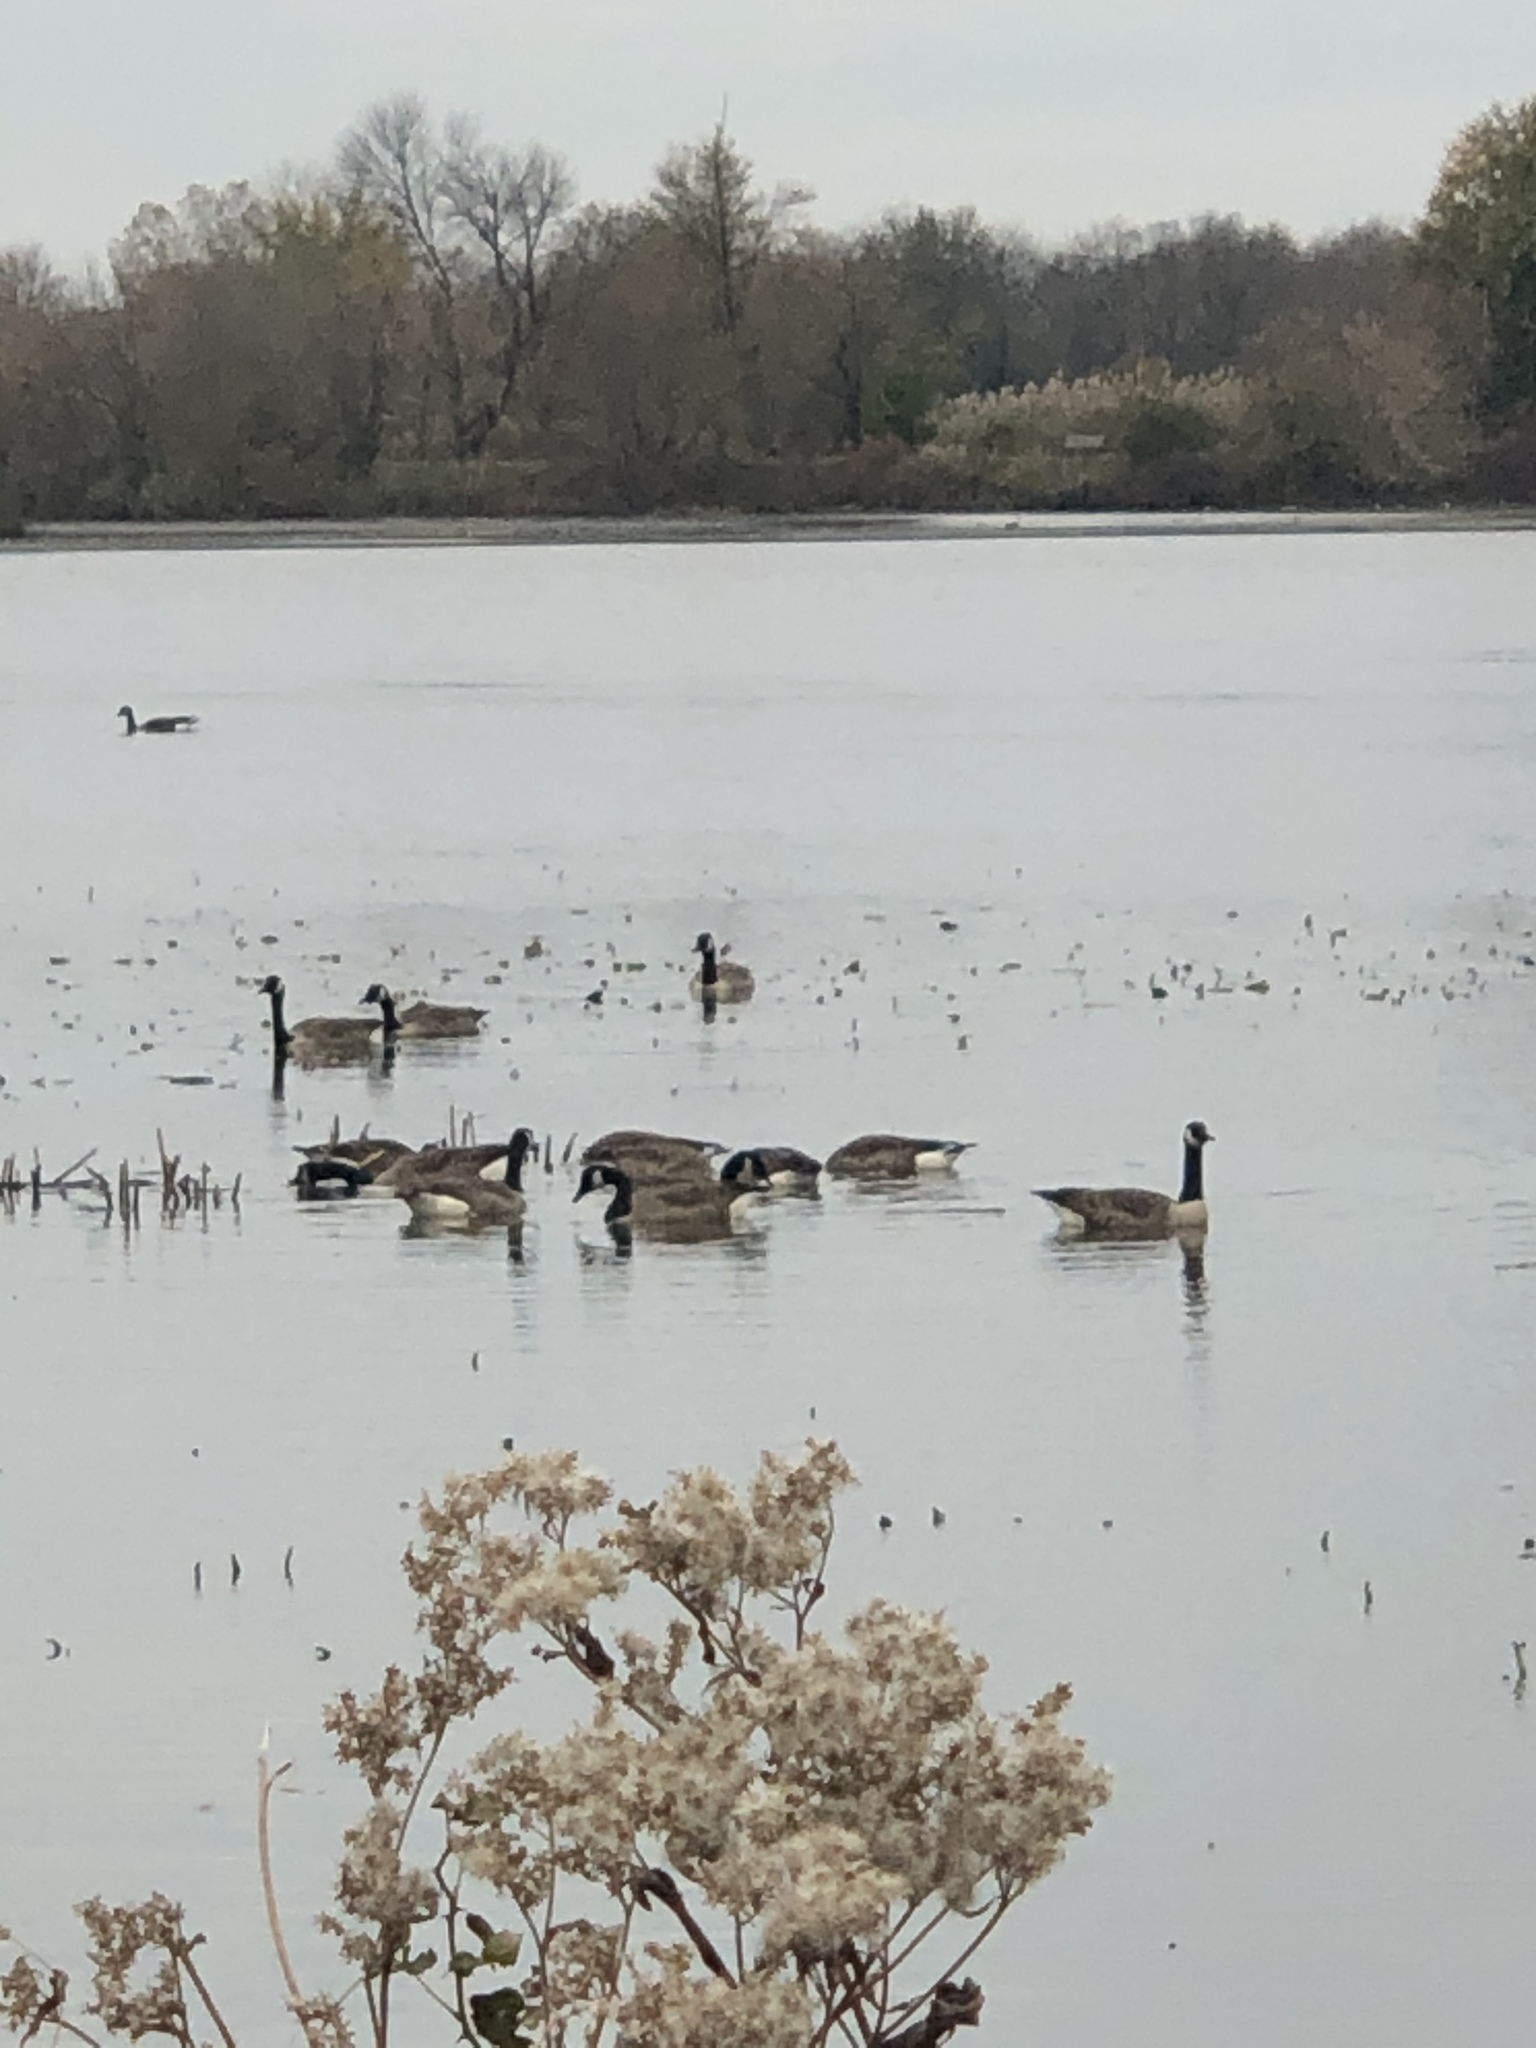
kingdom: Animalia
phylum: Chordata
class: Aves
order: Anseriformes
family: Anatidae
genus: Branta
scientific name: Branta canadensis
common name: Canada goose
